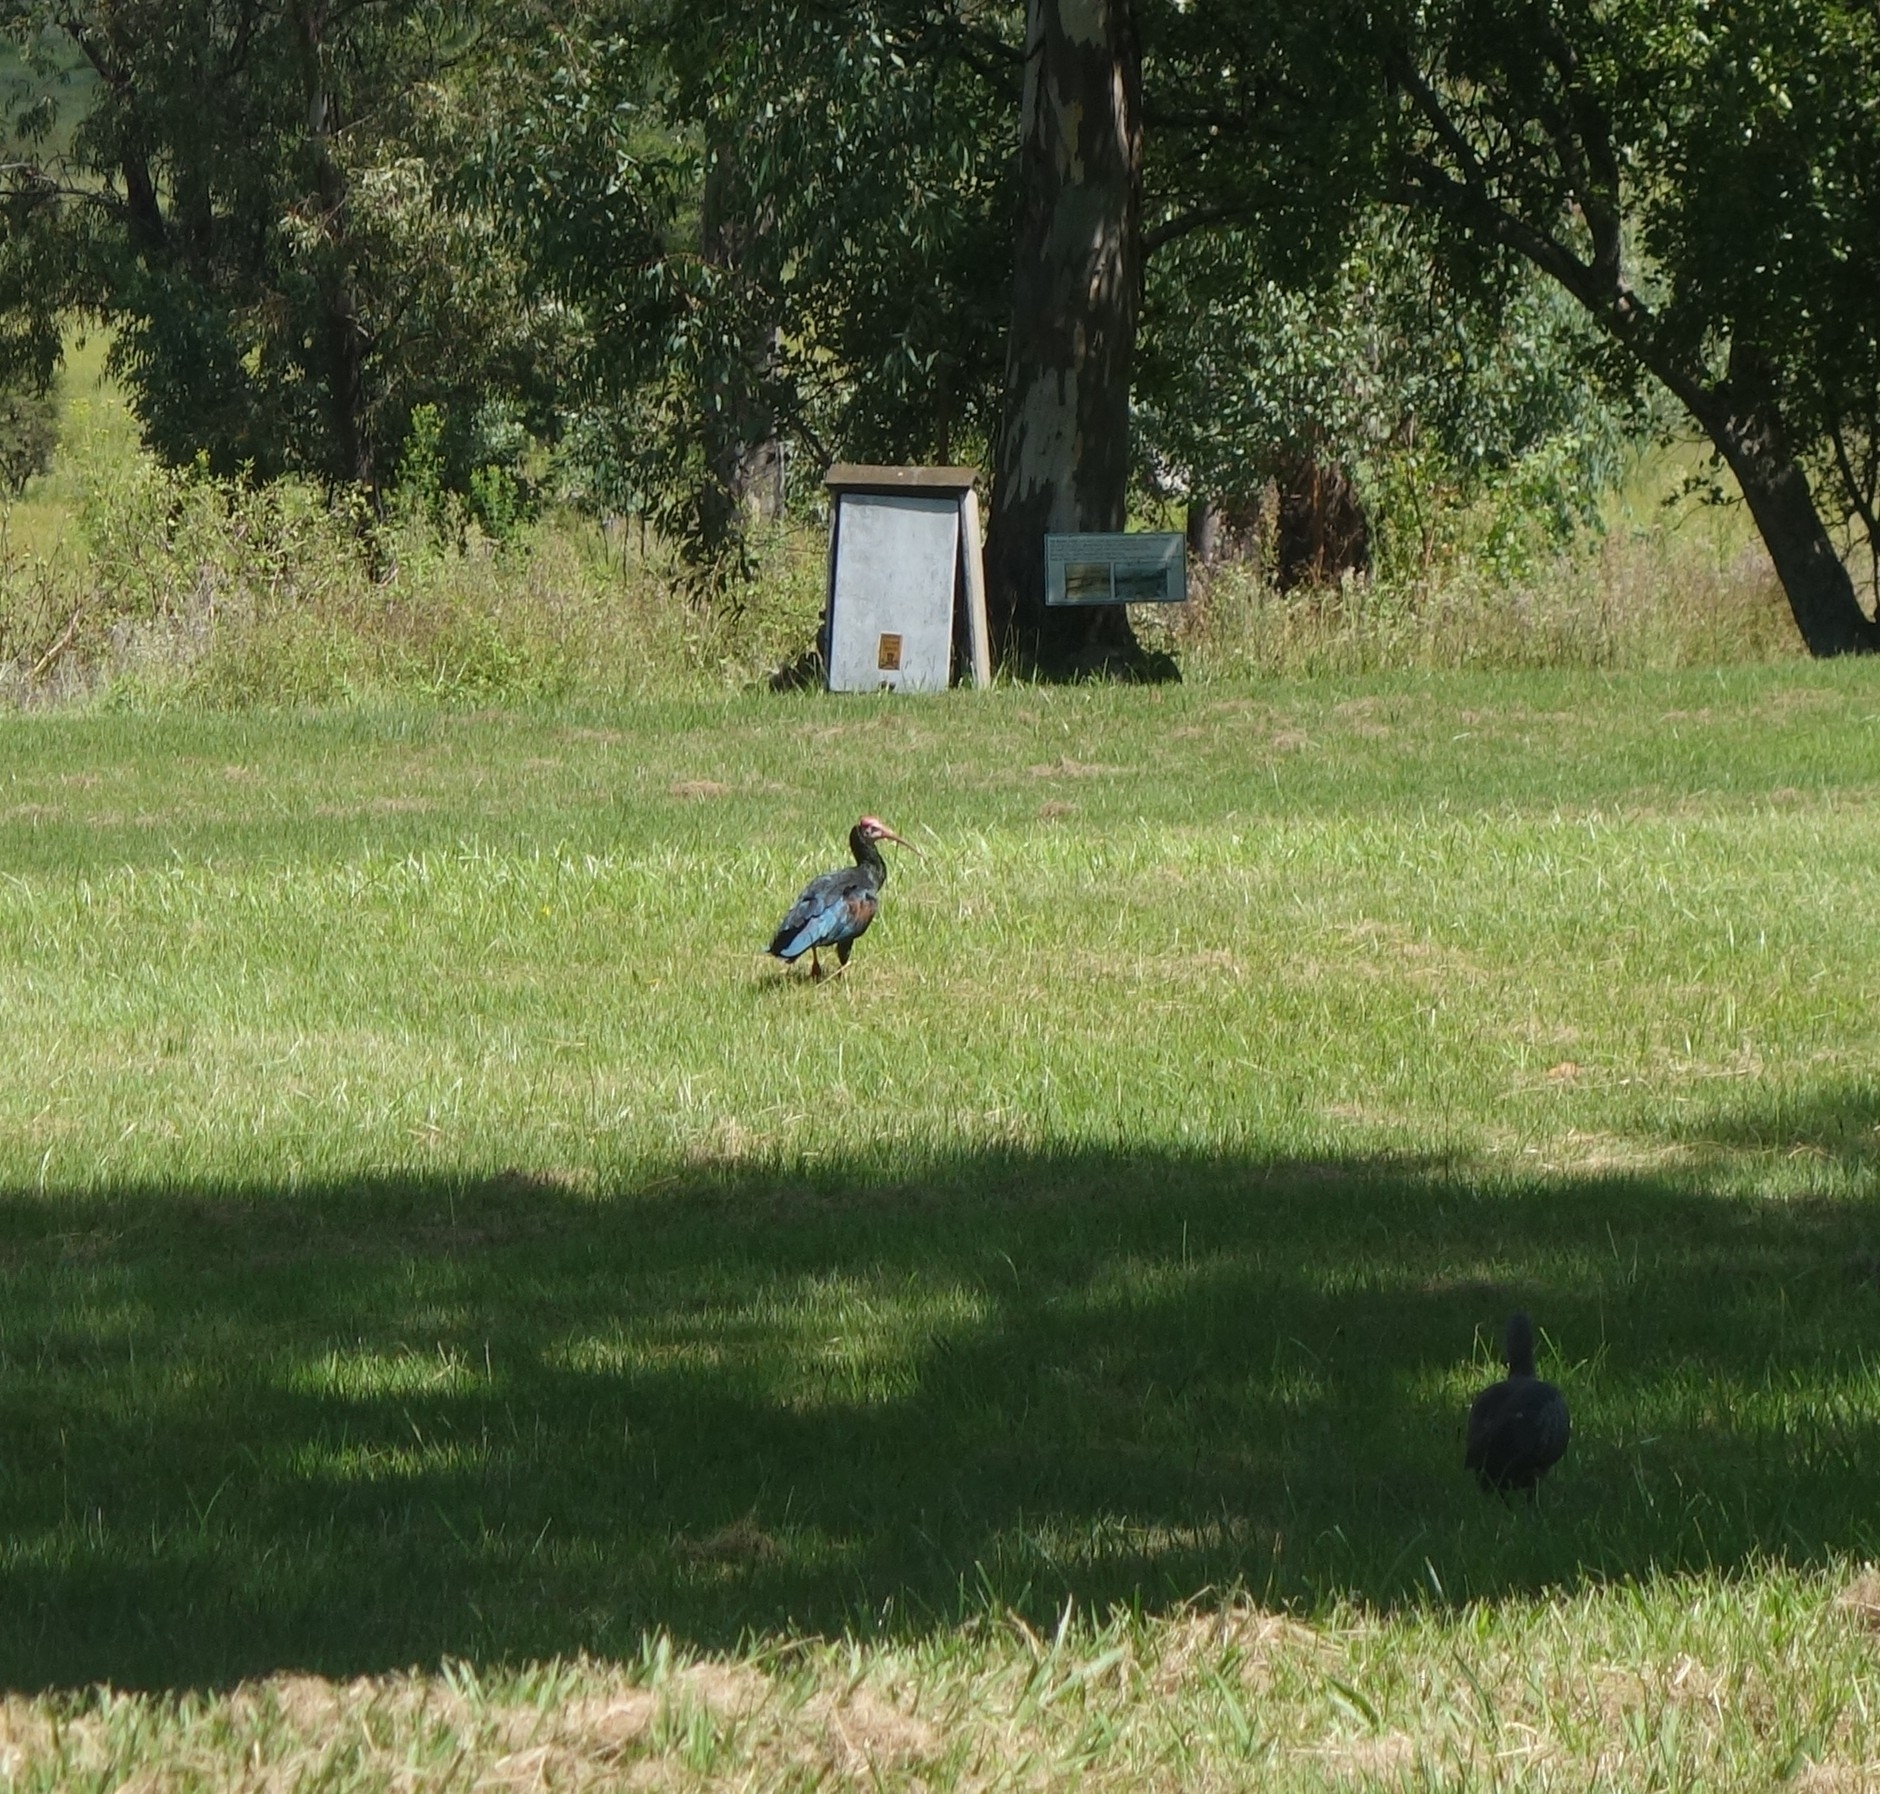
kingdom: Animalia
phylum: Chordata
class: Aves
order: Pelecaniformes
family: Threskiornithidae
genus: Geronticus
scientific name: Geronticus calvus
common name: Southern bald ibis
